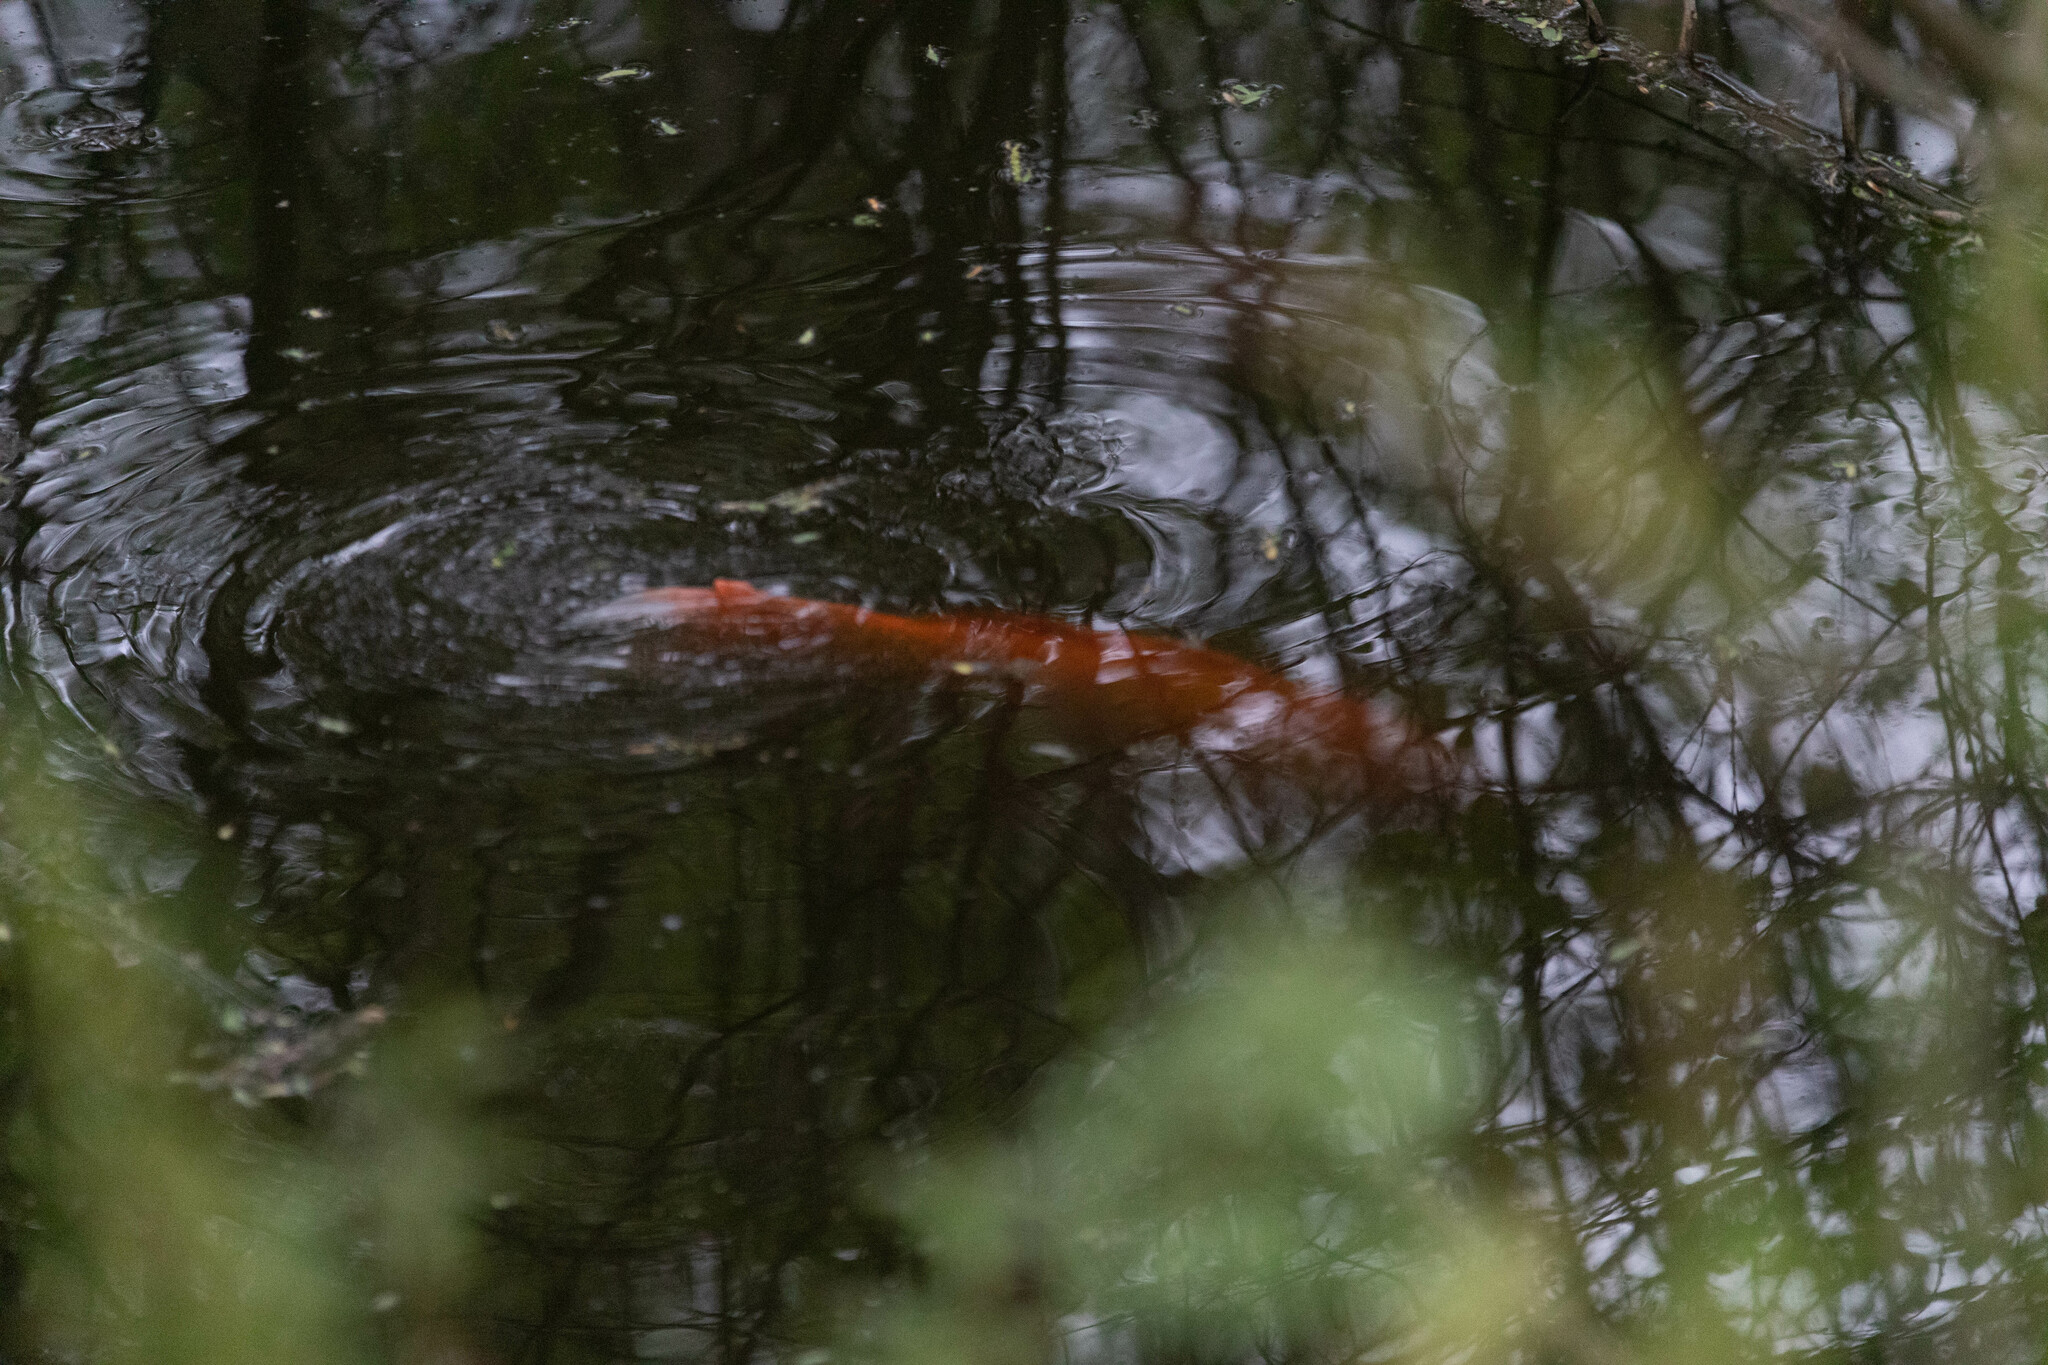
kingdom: Animalia
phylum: Chordata
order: Cypriniformes
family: Cyprinidae
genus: Carassius
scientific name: Carassius auratus
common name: Goldfish
